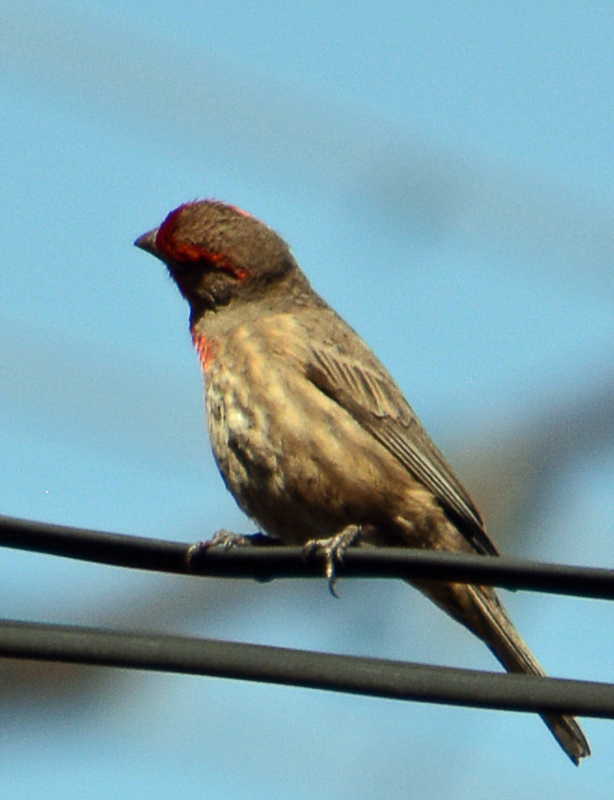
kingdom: Animalia
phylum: Chordata
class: Aves
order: Passeriformes
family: Fringillidae
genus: Haemorhous
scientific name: Haemorhous mexicanus
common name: House finch
